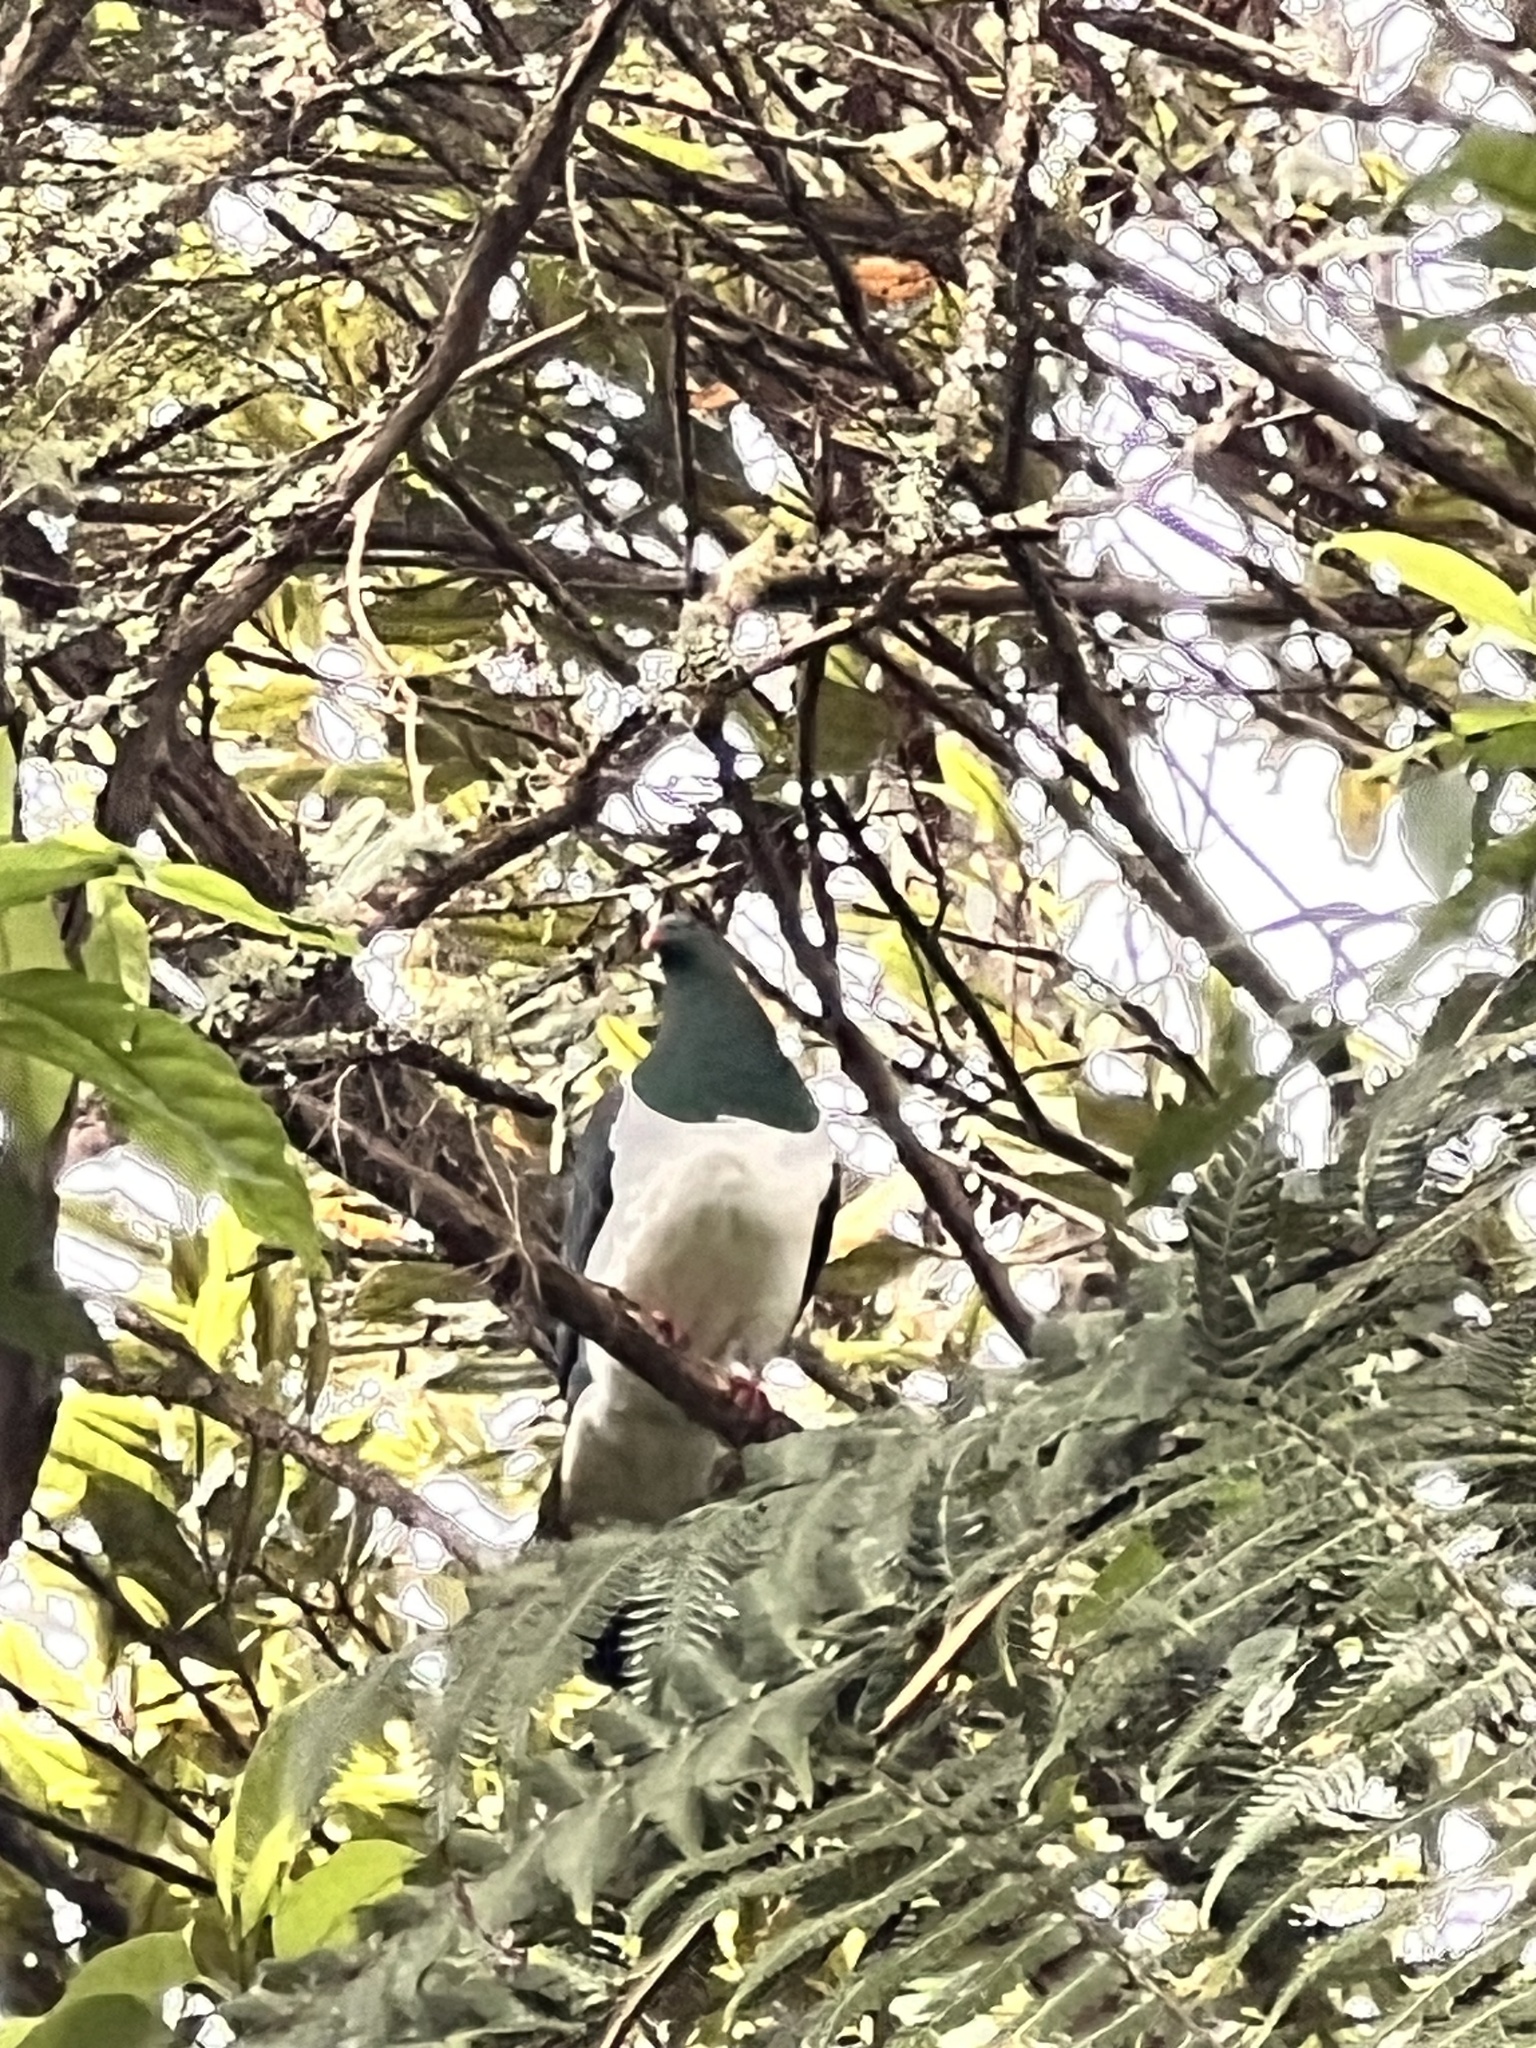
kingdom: Animalia
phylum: Chordata
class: Aves
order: Columbiformes
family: Columbidae
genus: Hemiphaga
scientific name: Hemiphaga novaeseelandiae
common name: New zealand pigeon
